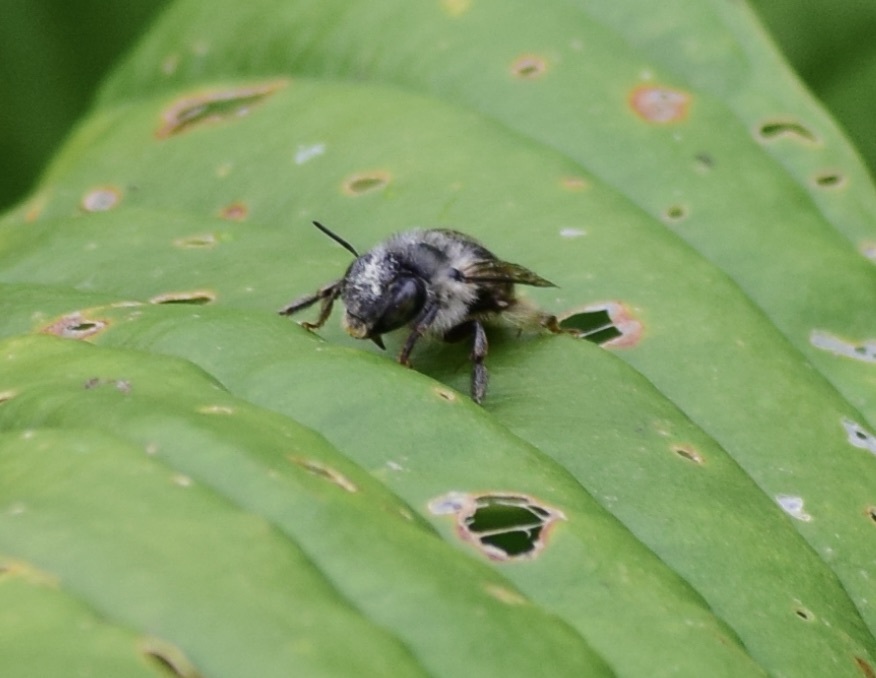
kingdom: Animalia
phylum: Arthropoda
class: Insecta
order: Hymenoptera
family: Apidae
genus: Anthophora
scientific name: Anthophora terminalis
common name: Orange-tipped wood-digger bee
